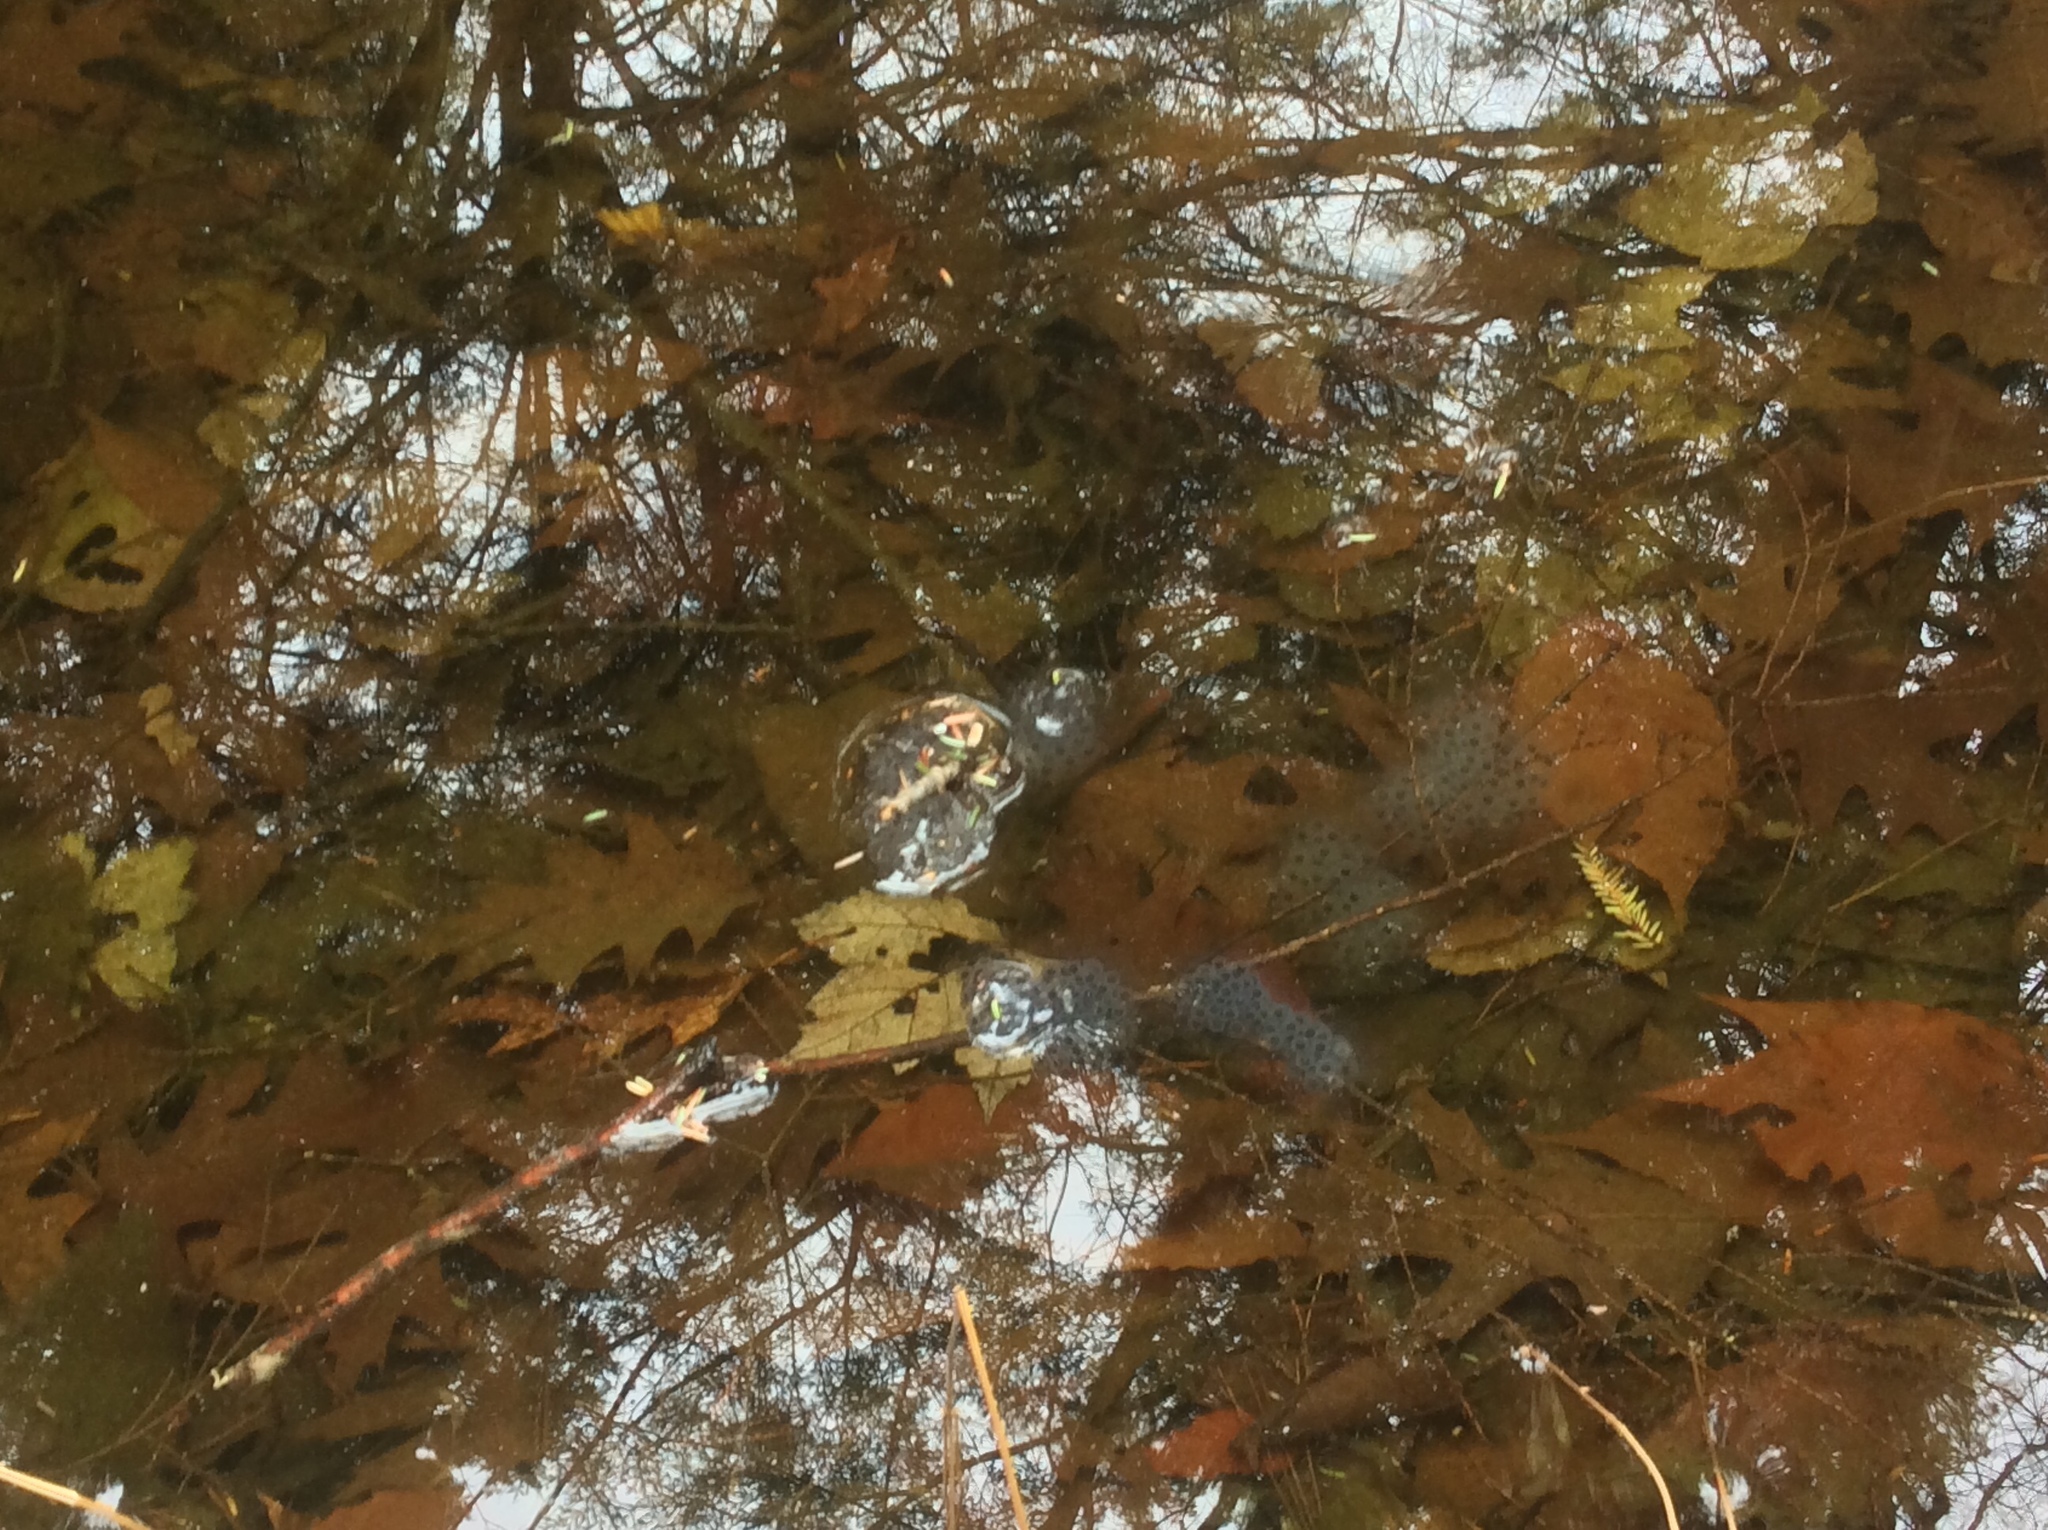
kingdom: Animalia
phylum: Chordata
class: Amphibia
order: Caudata
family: Ambystomatidae
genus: Ambystoma
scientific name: Ambystoma maculatum
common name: Spotted salamander
